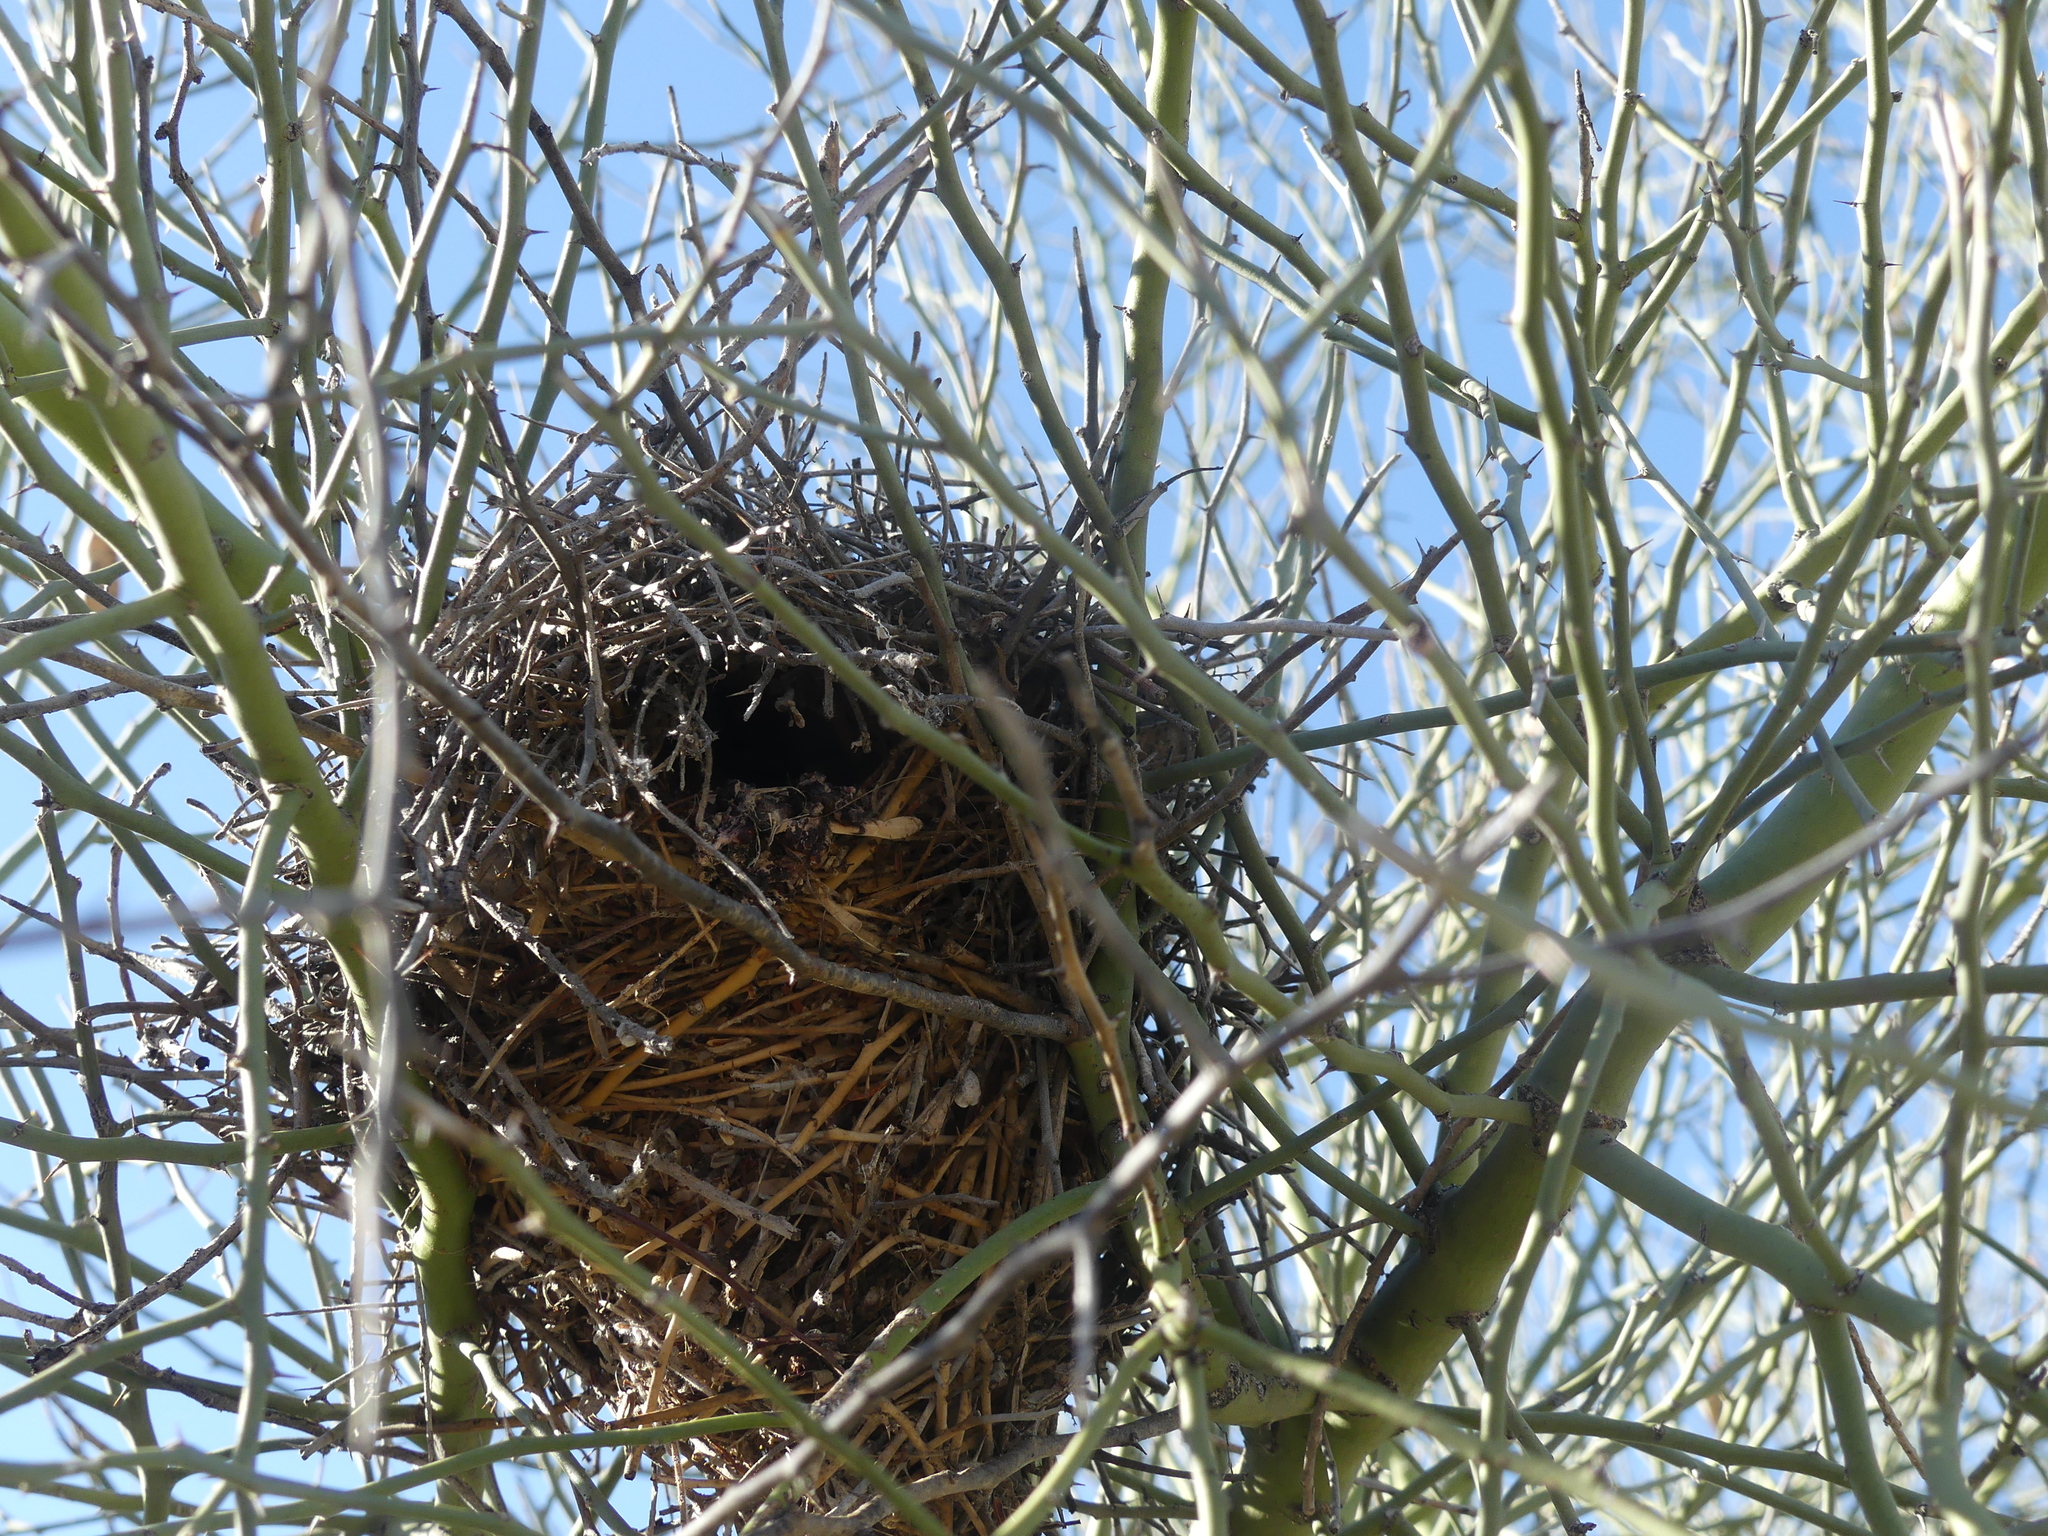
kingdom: Animalia
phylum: Chordata
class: Aves
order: Passeriformes
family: Remizidae
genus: Auriparus
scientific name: Auriparus flaviceps
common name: Verdin
